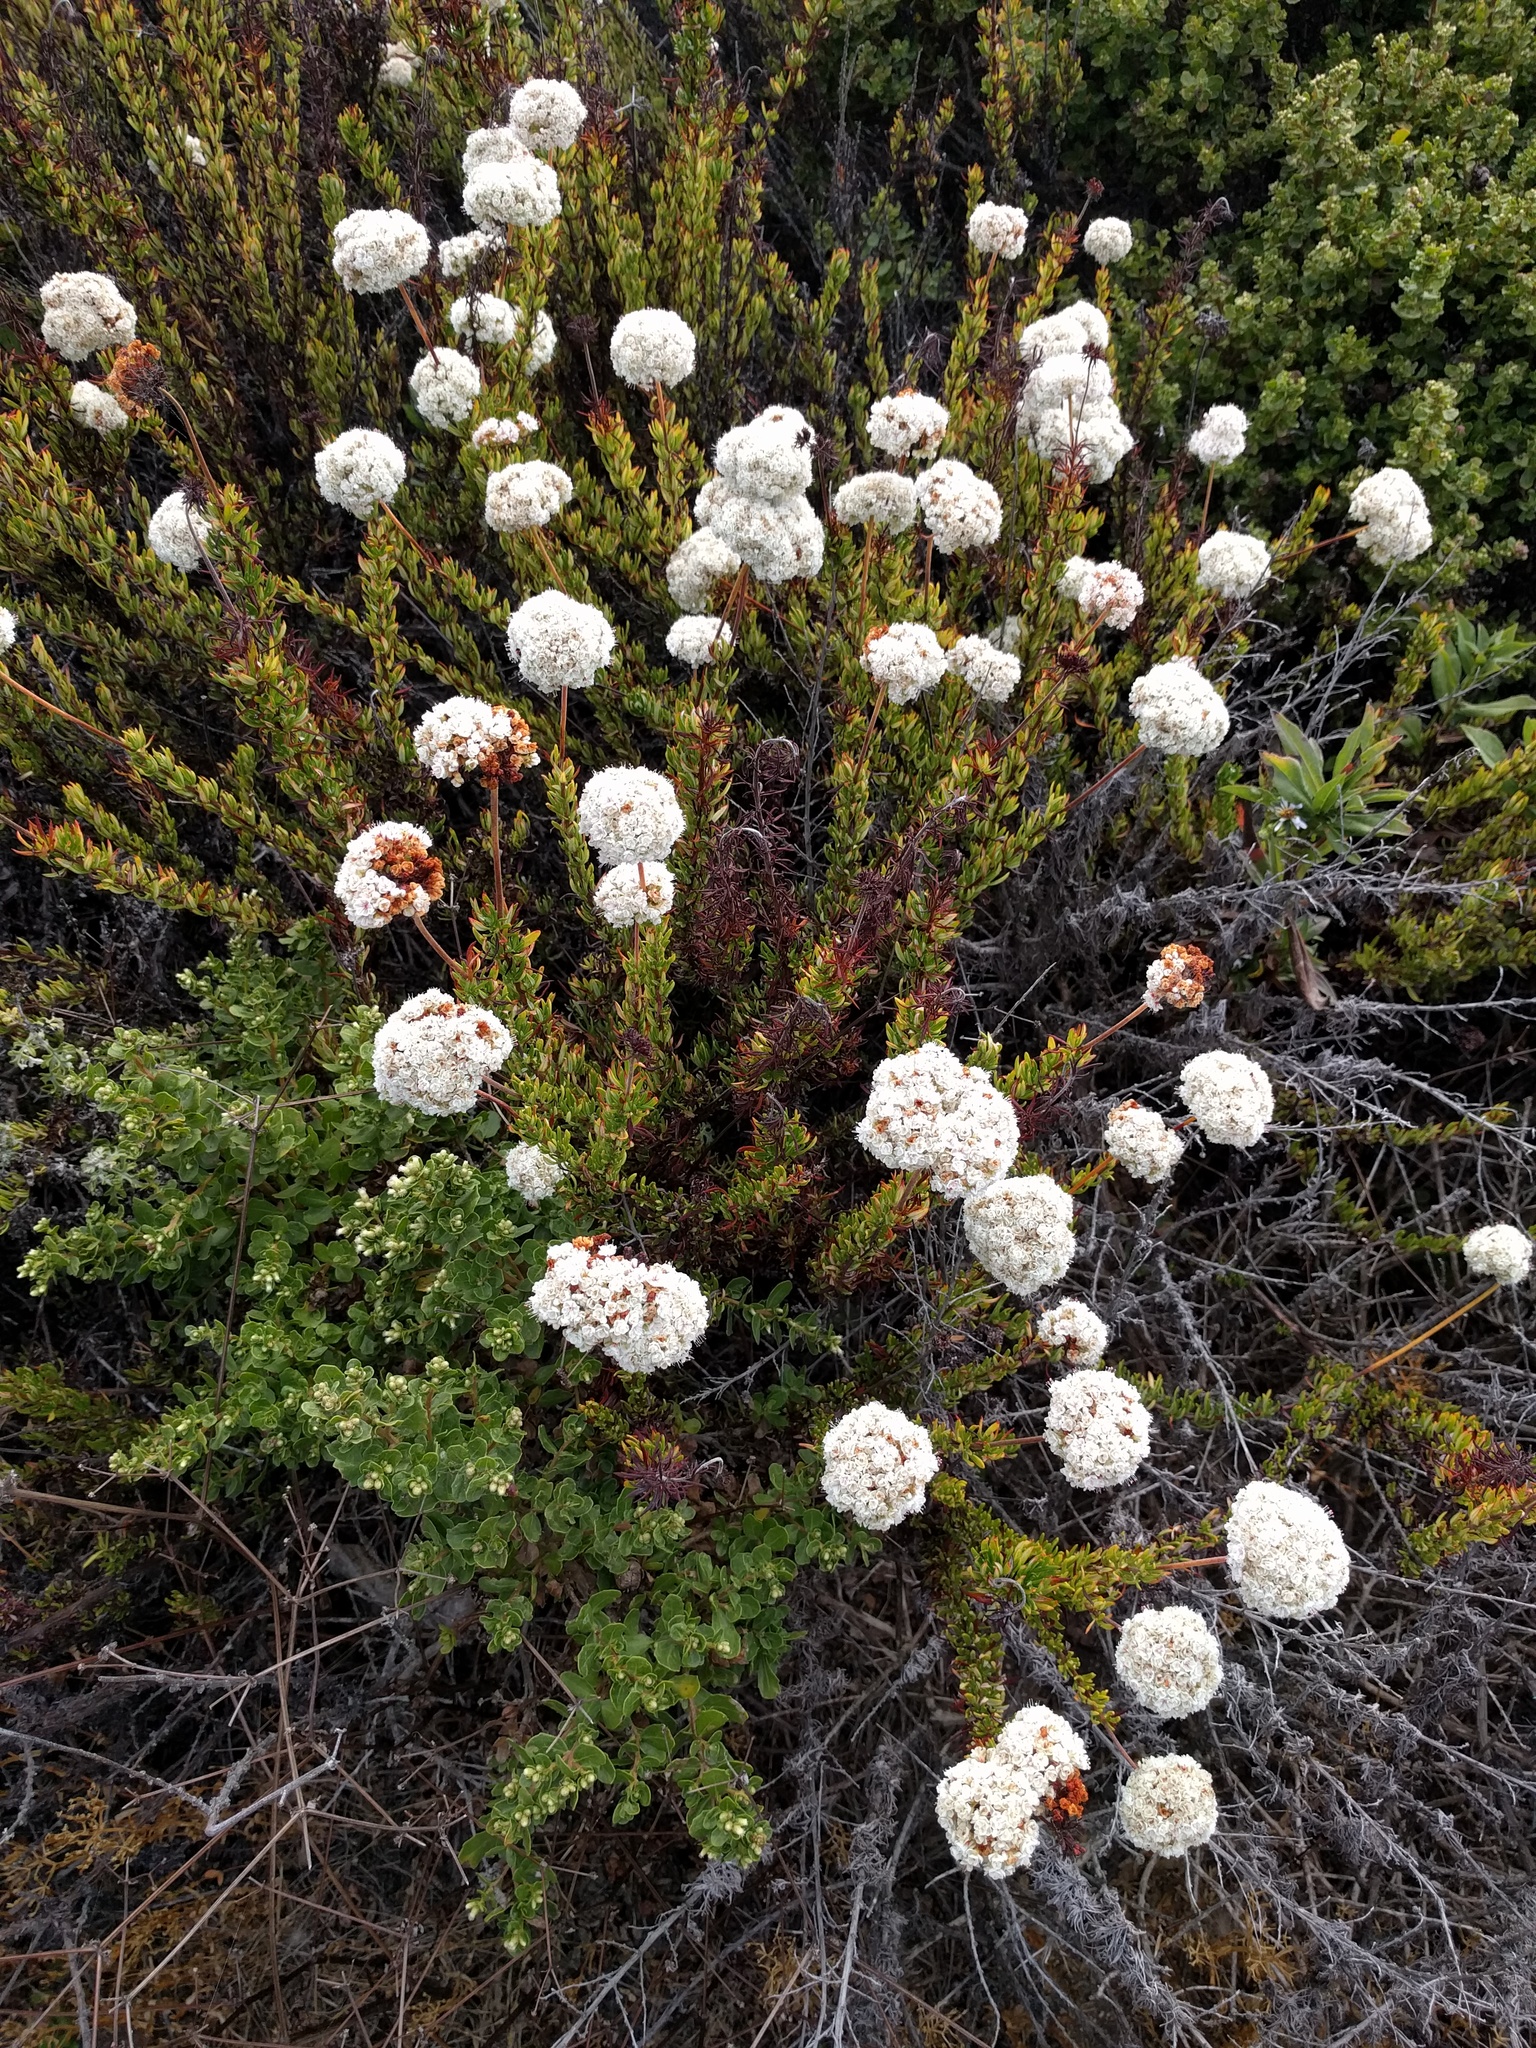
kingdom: Plantae
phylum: Tracheophyta
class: Magnoliopsida
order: Caryophyllales
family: Polygonaceae
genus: Eriogonum
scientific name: Eriogonum fasciculatum
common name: California wild buckwheat
